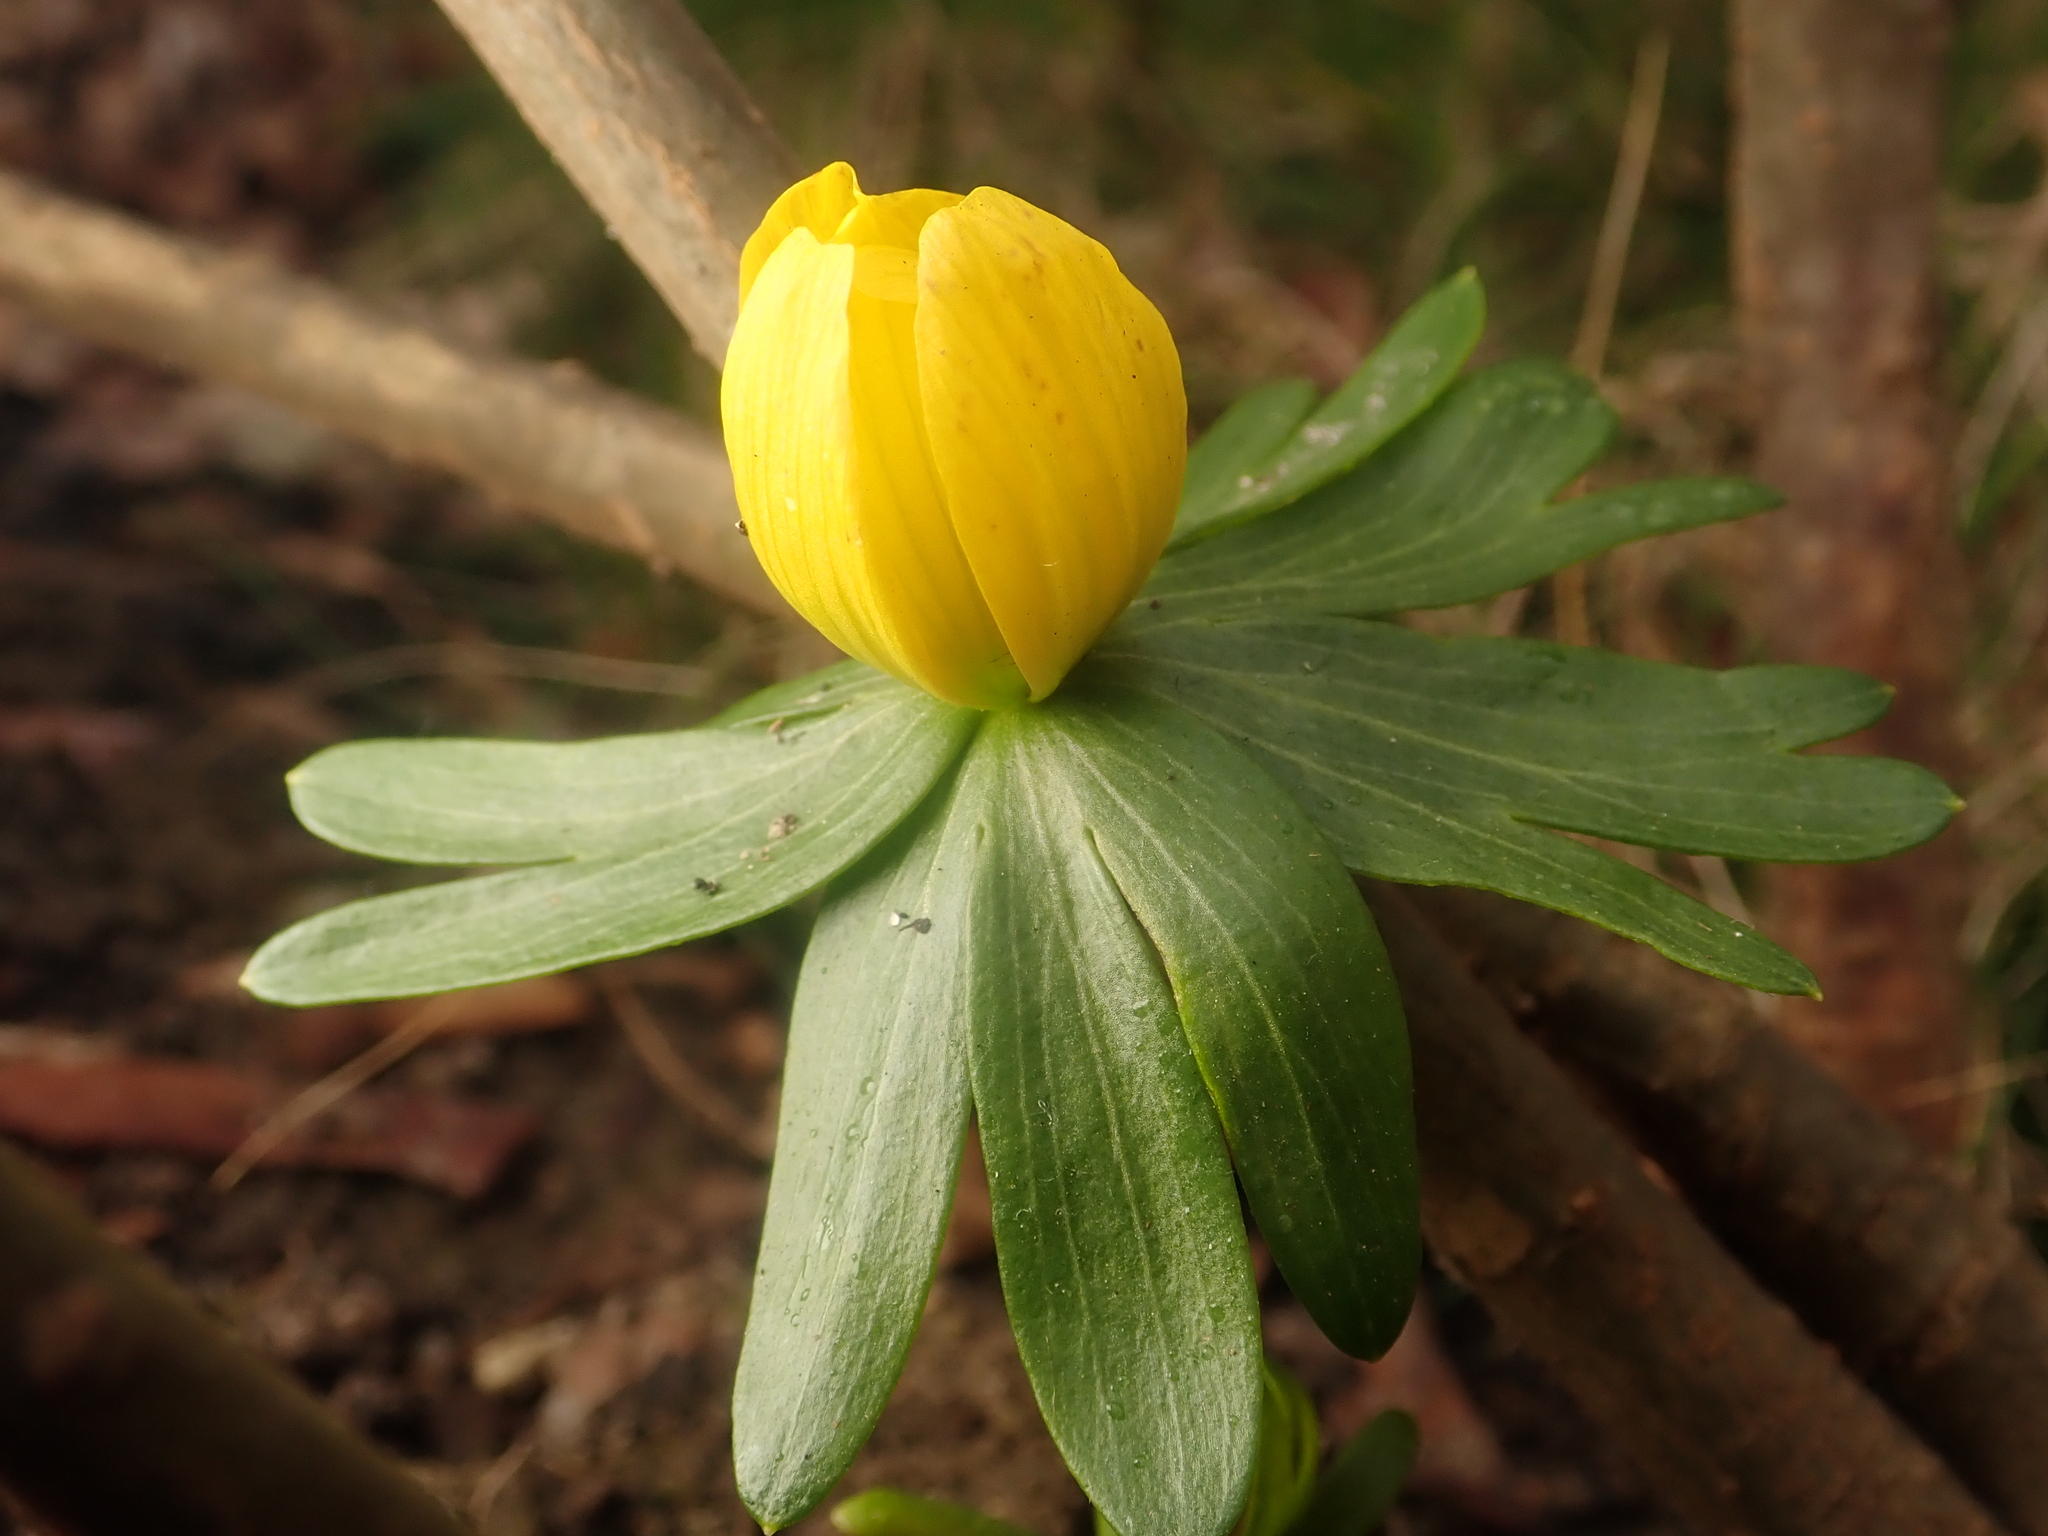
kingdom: Plantae
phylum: Tracheophyta
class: Magnoliopsida
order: Ranunculales
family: Ranunculaceae
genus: Eranthis
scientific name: Eranthis hyemalis
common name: Winter aconite
